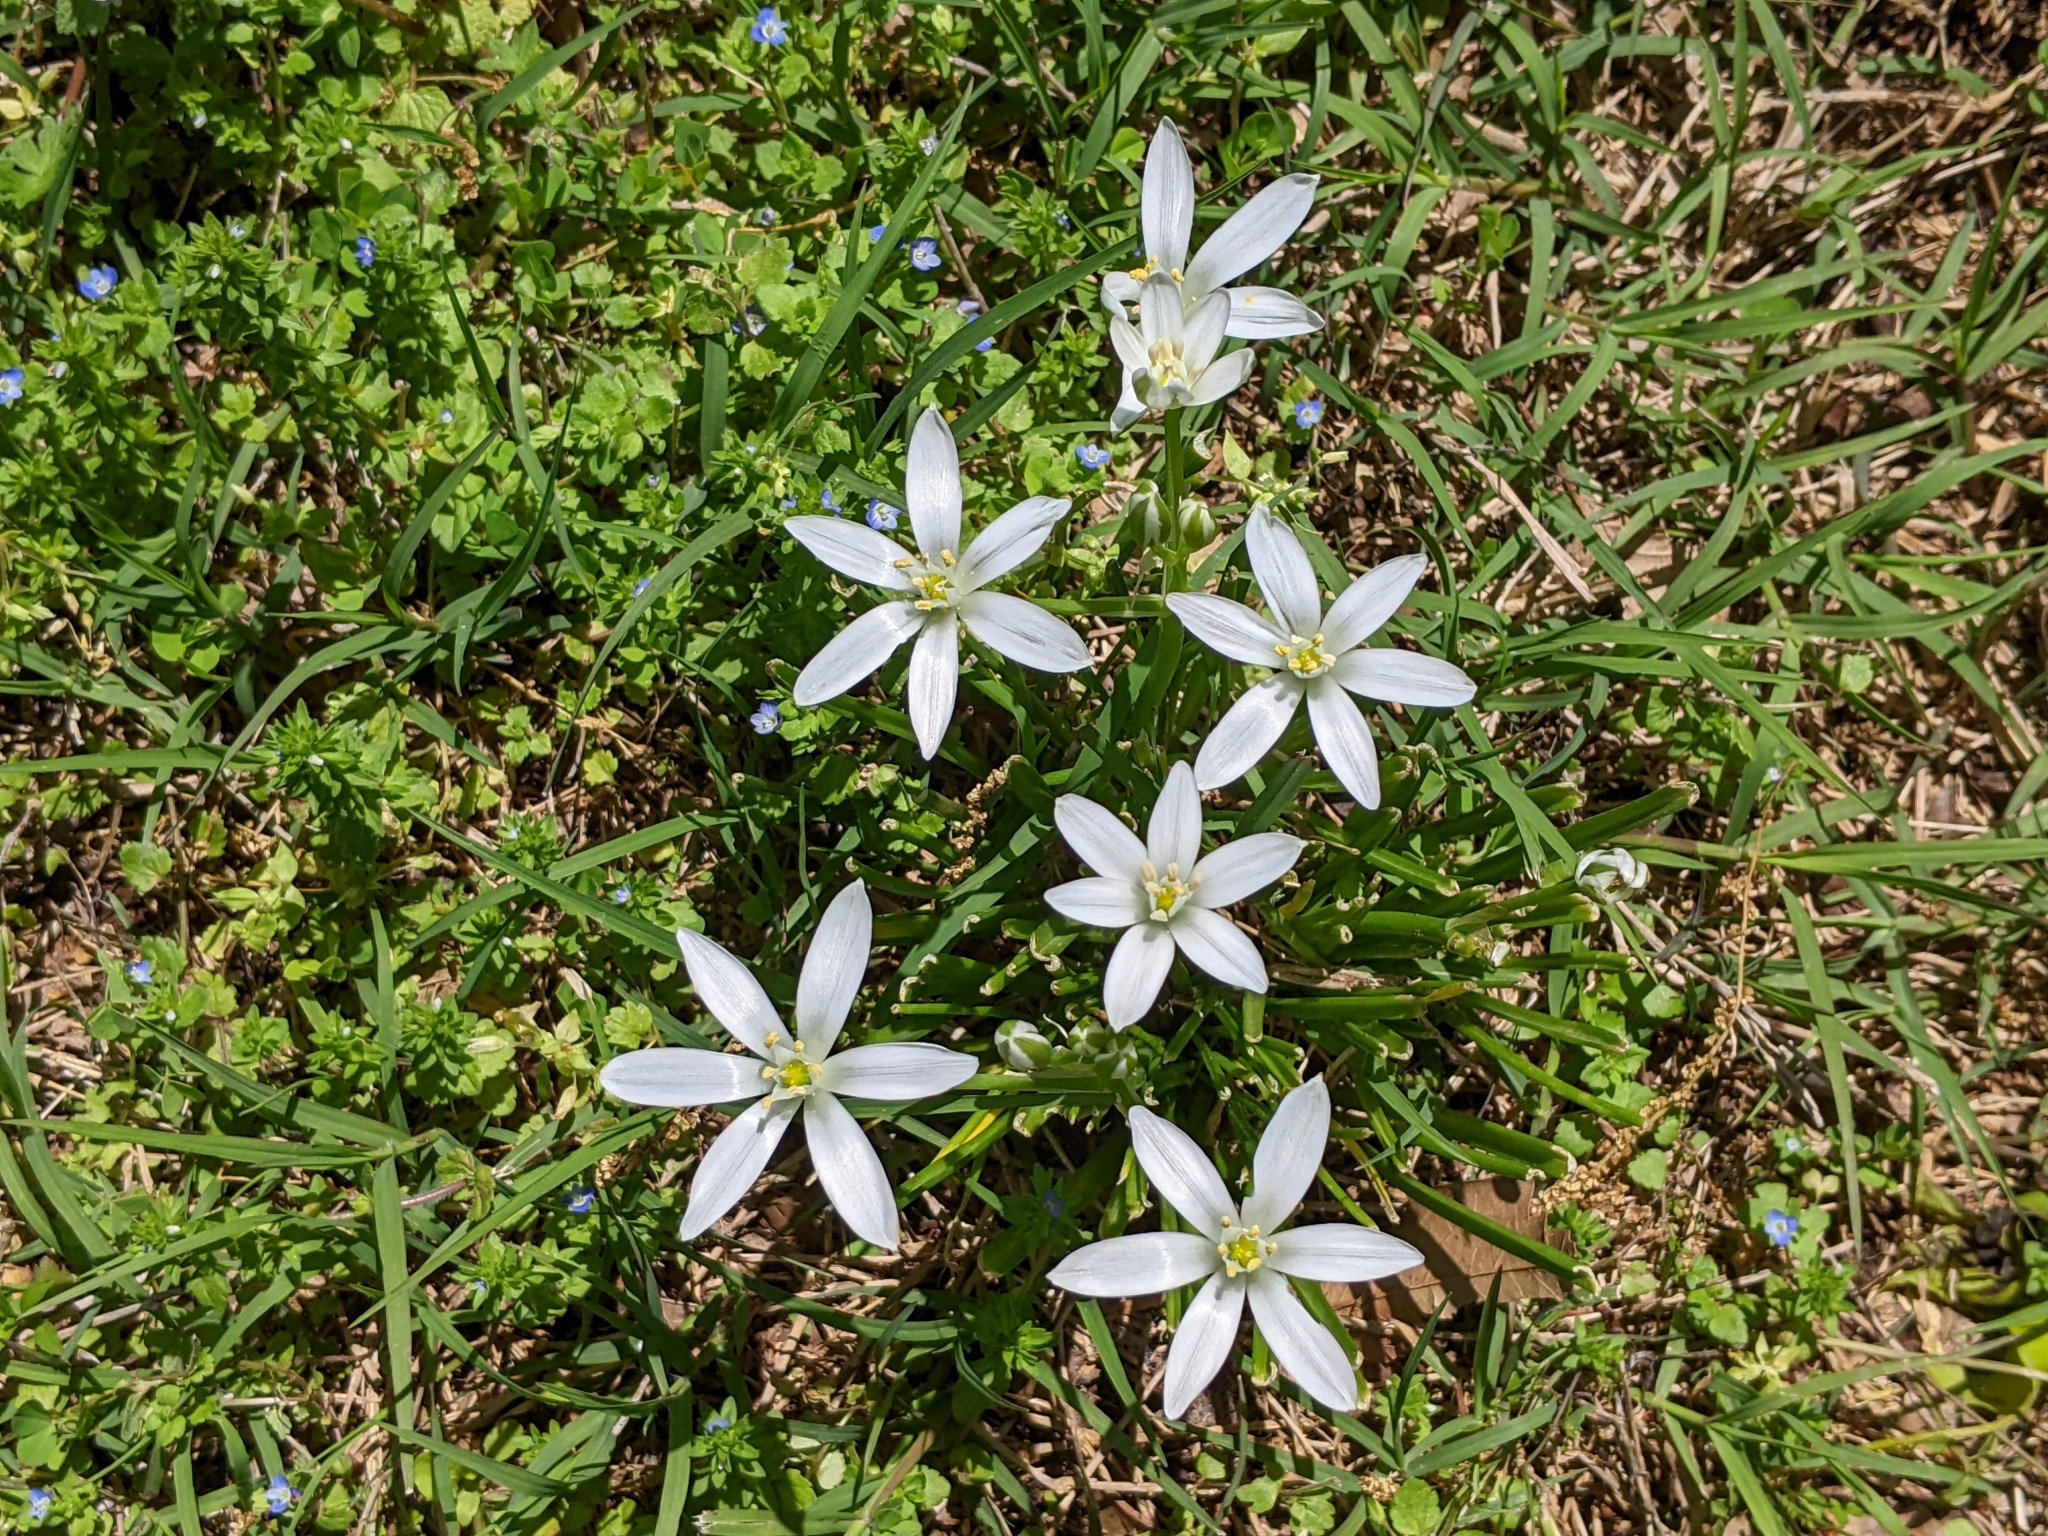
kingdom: Plantae
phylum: Tracheophyta
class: Liliopsida
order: Asparagales
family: Asparagaceae
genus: Ornithogalum
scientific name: Ornithogalum umbellatum
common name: Garden star-of-bethlehem
